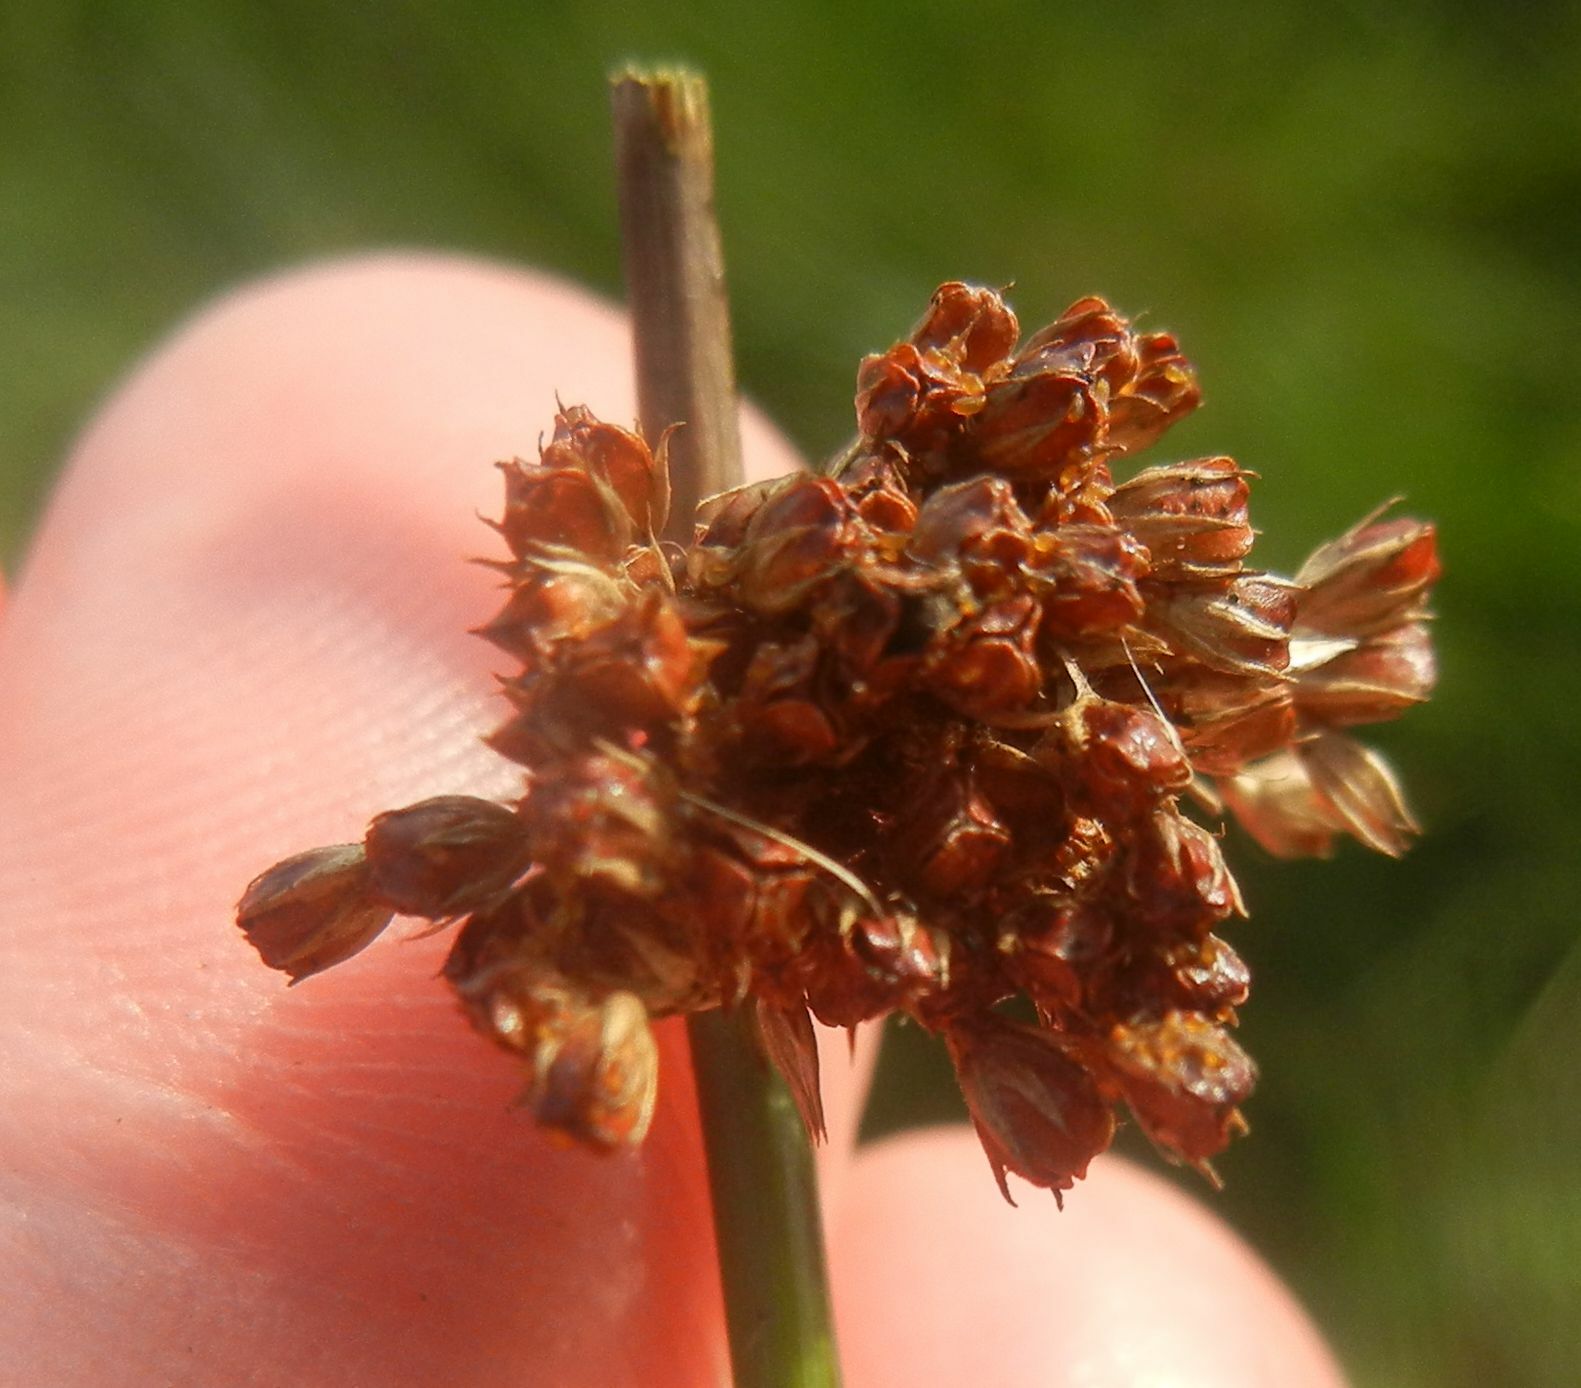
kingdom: Plantae
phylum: Tracheophyta
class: Liliopsida
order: Poales
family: Juncaceae
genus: Juncus
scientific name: Juncus effusus
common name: Soft rush
